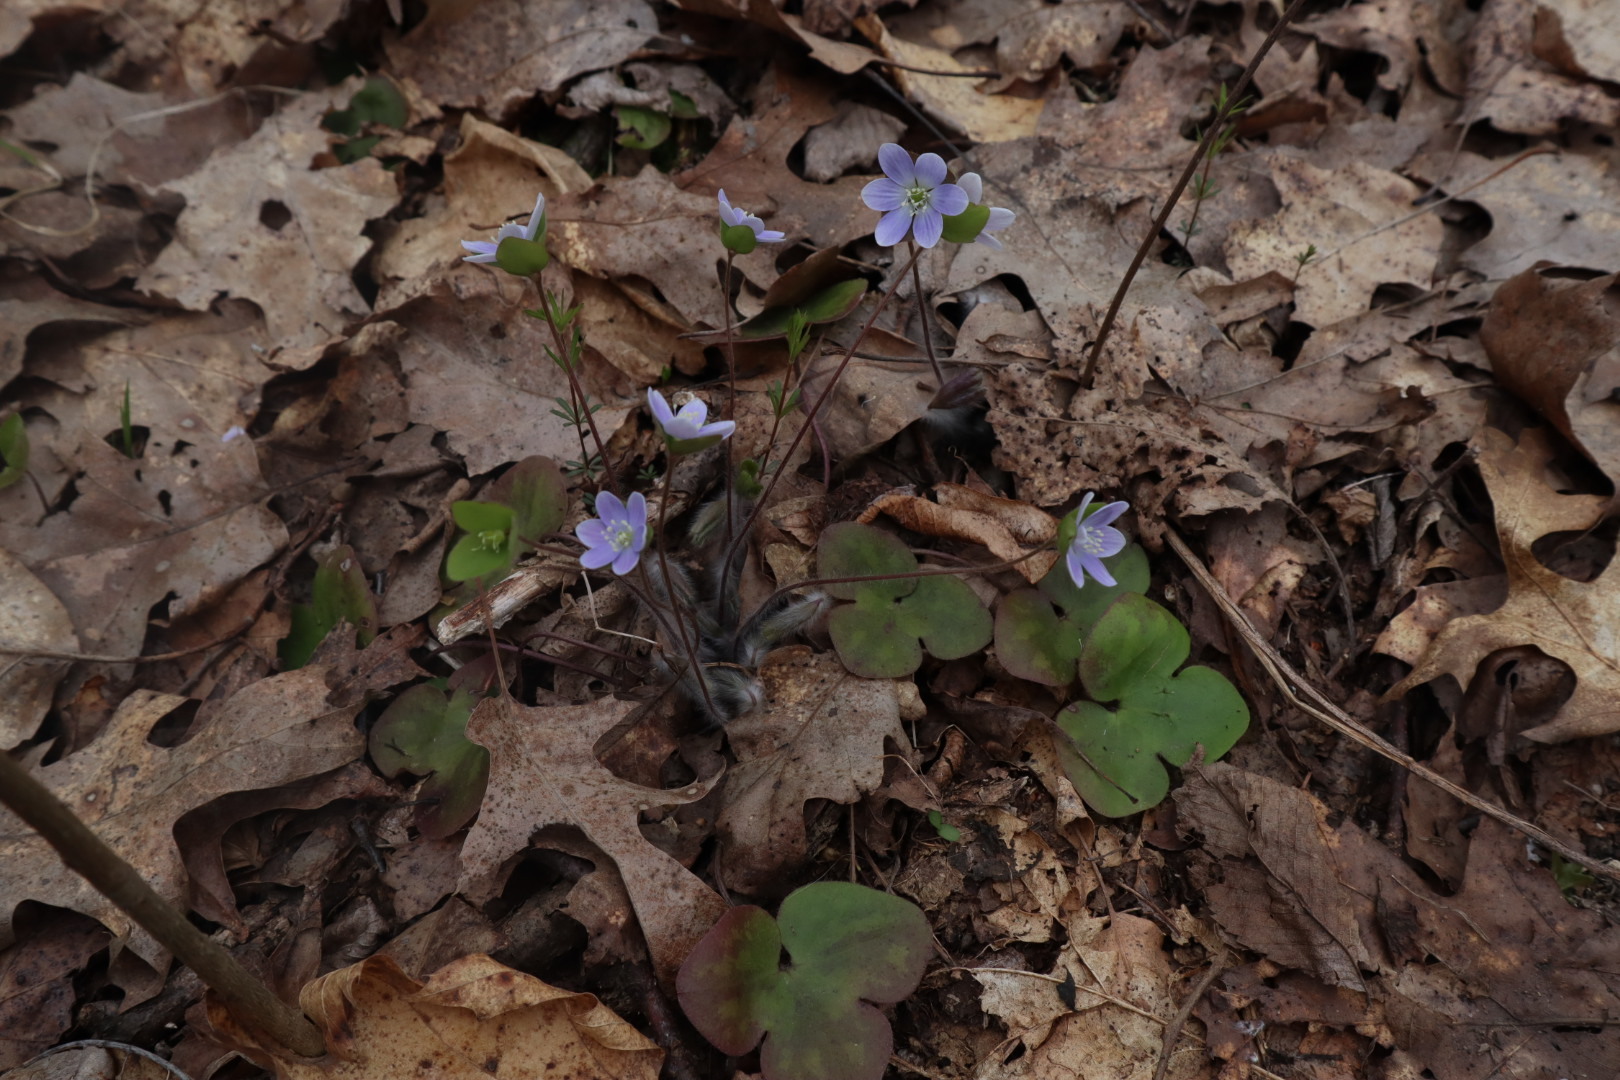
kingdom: Plantae
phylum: Tracheophyta
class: Magnoliopsida
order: Ranunculales
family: Ranunculaceae
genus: Hepatica
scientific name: Hepatica americana
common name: American hepatica
